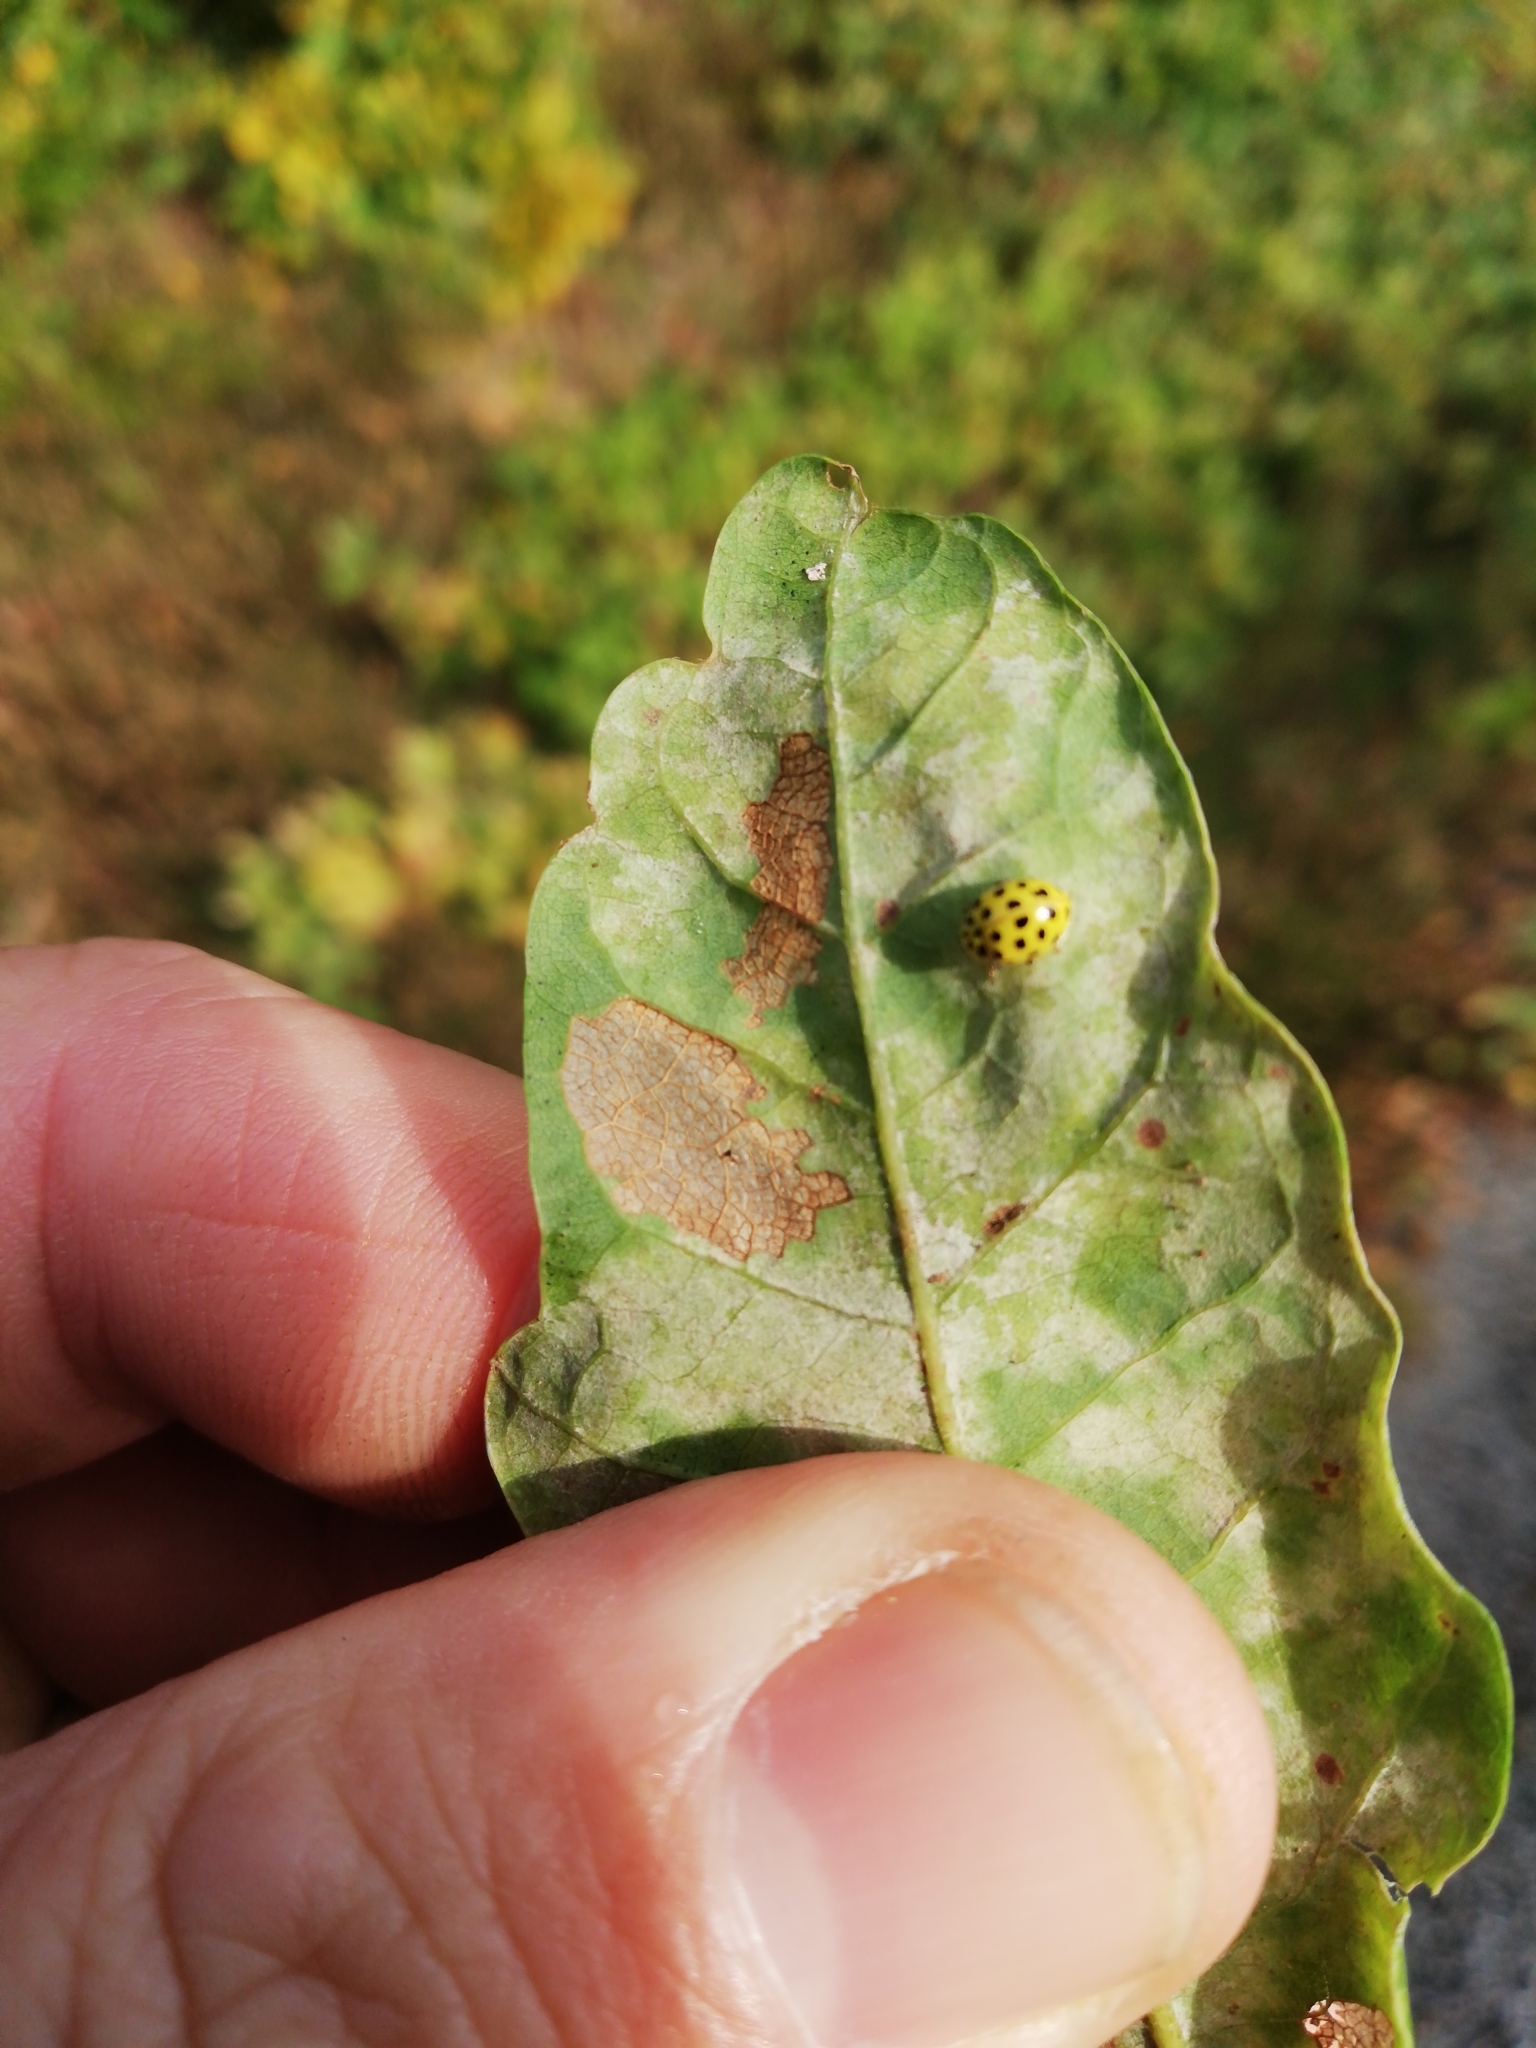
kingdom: Animalia
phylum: Arthropoda
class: Insecta
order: Coleoptera
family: Coccinellidae
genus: Psyllobora
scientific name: Psyllobora vigintiduopunctata
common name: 22-spot ladybird
